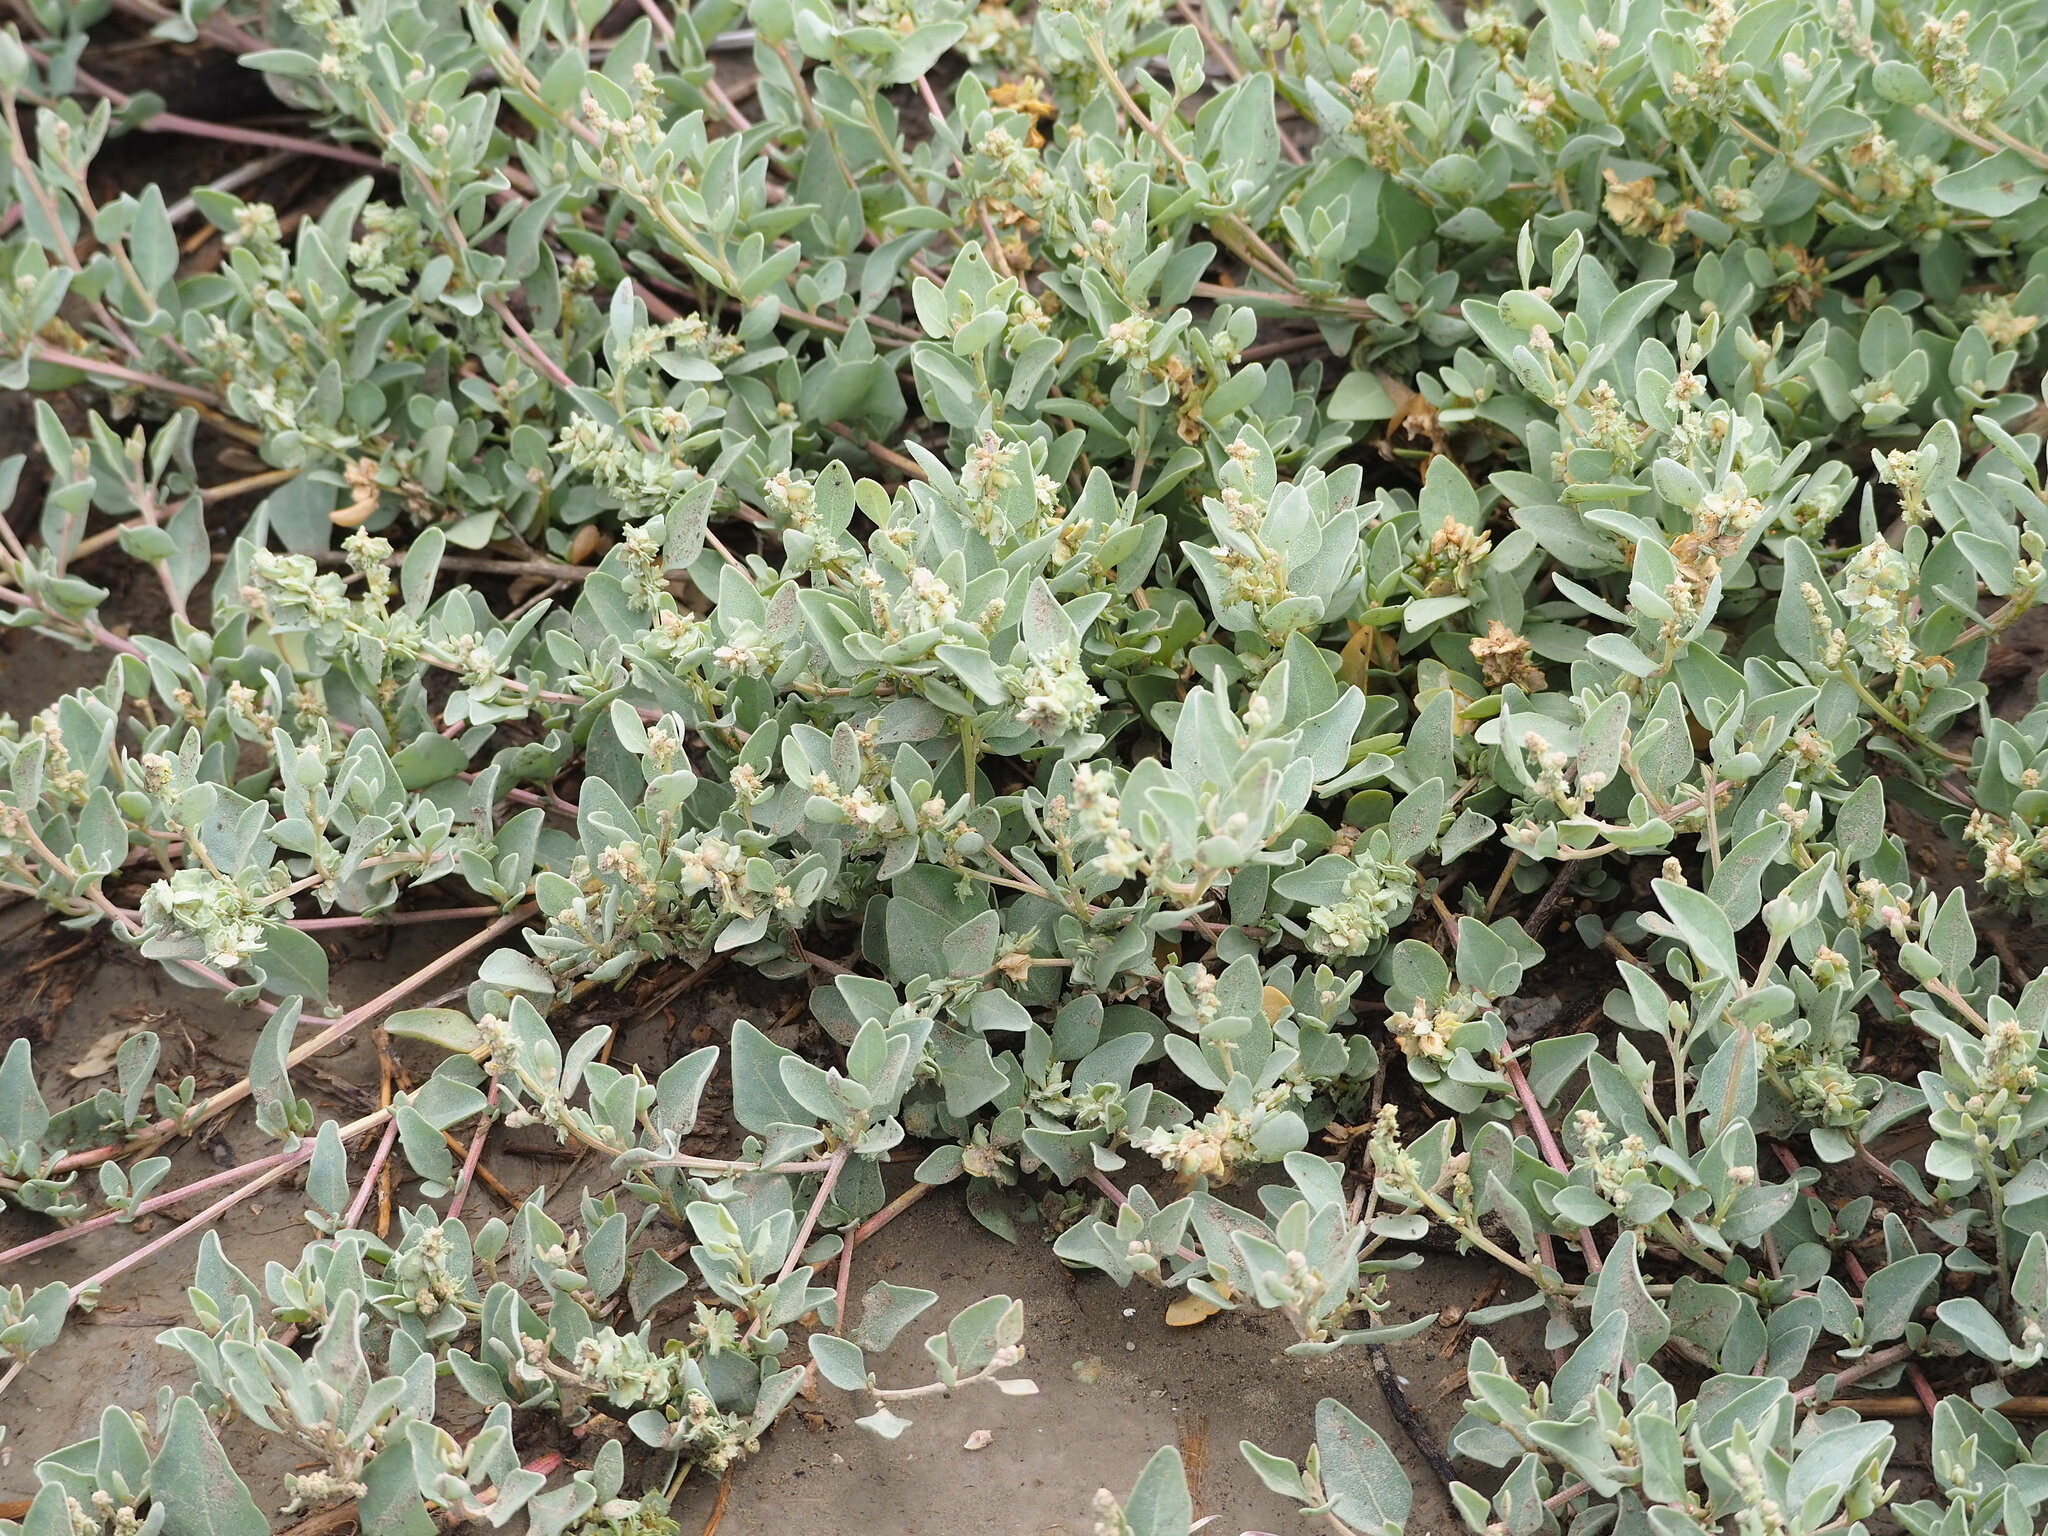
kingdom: Plantae
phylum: Tracheophyta
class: Magnoliopsida
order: Caryophyllales
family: Amaranthaceae
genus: Atriplex
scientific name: Atriplex maximowicziana
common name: Maximowicz's saltbush
